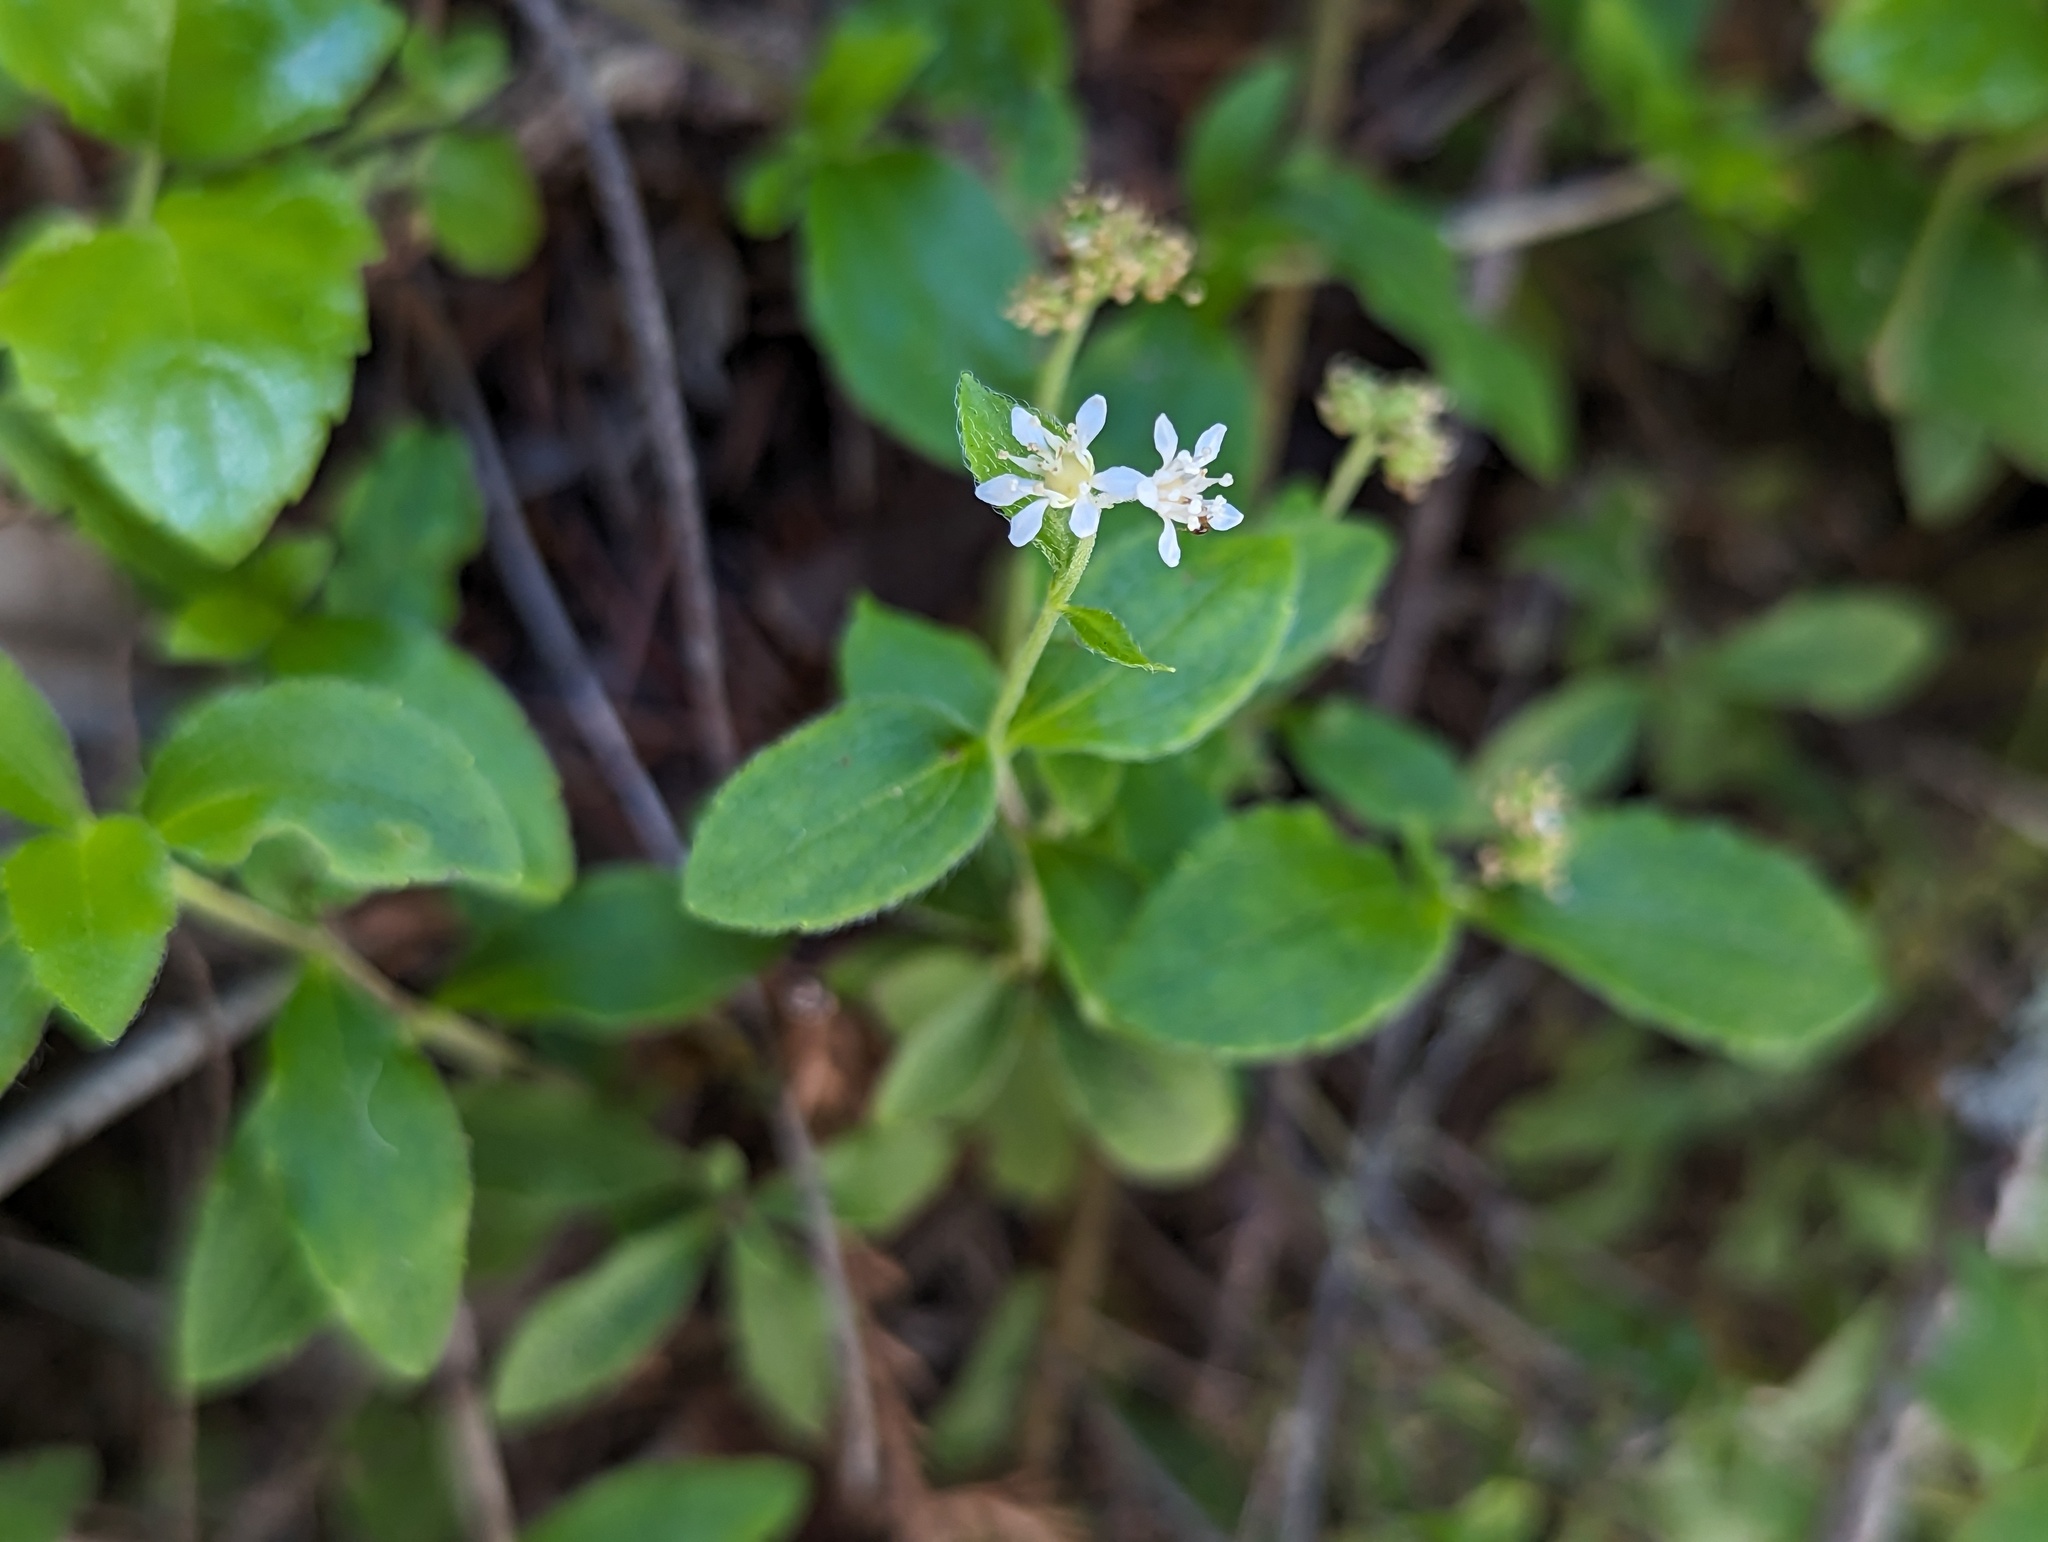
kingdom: Plantae
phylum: Tracheophyta
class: Magnoliopsida
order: Cornales
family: Hydrangeaceae
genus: Whipplea
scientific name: Whipplea modesta
